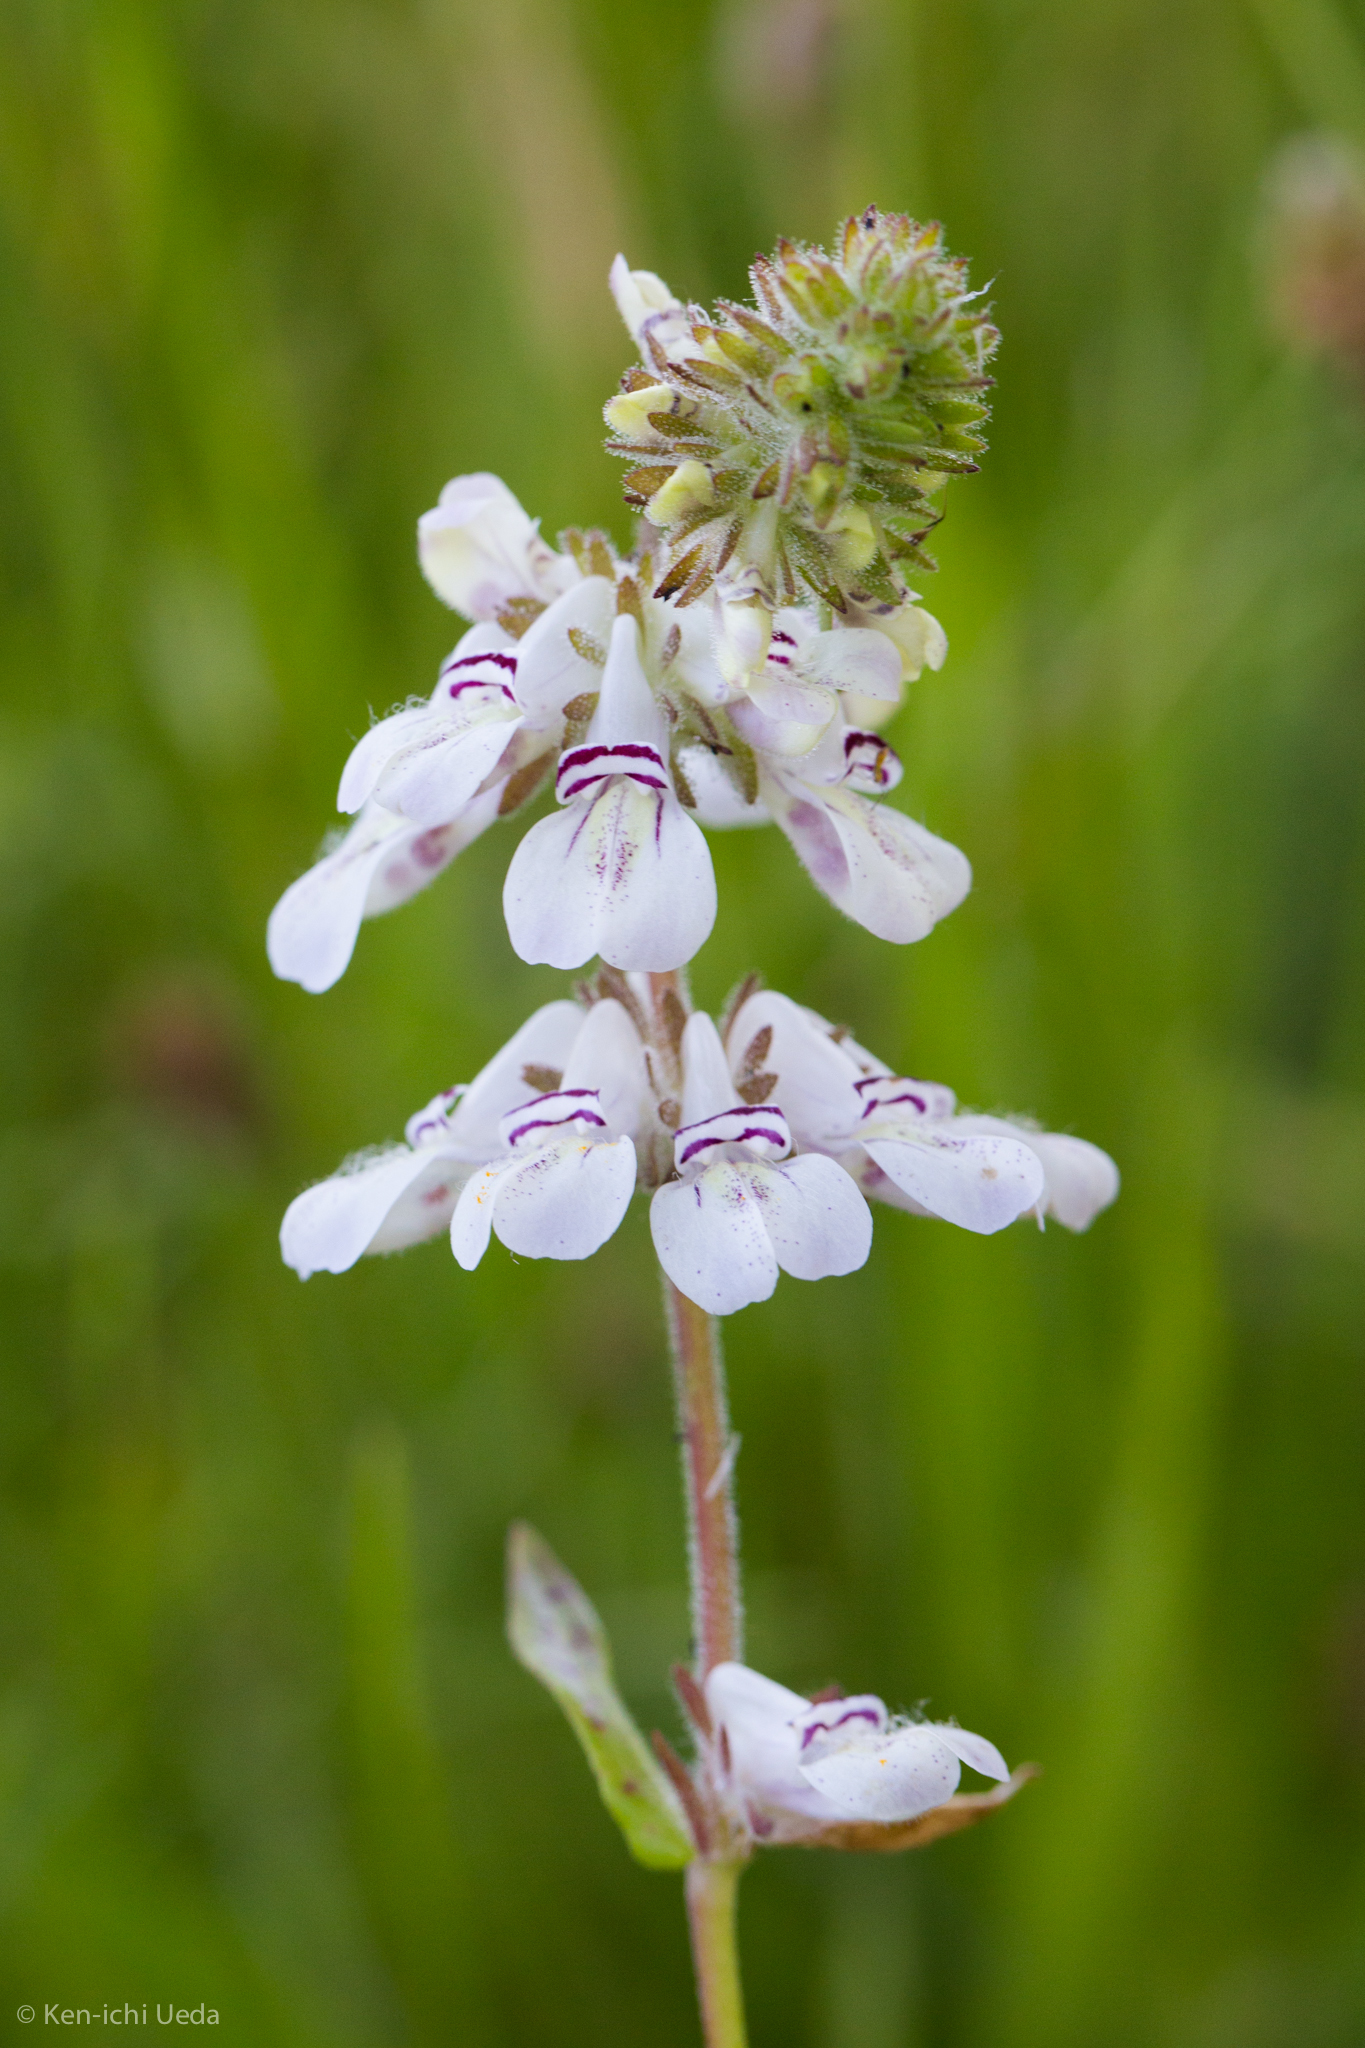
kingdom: Plantae
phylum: Tracheophyta
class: Magnoliopsida
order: Lamiales
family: Plantaginaceae
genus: Collinsia
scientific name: Collinsia tinctoria
